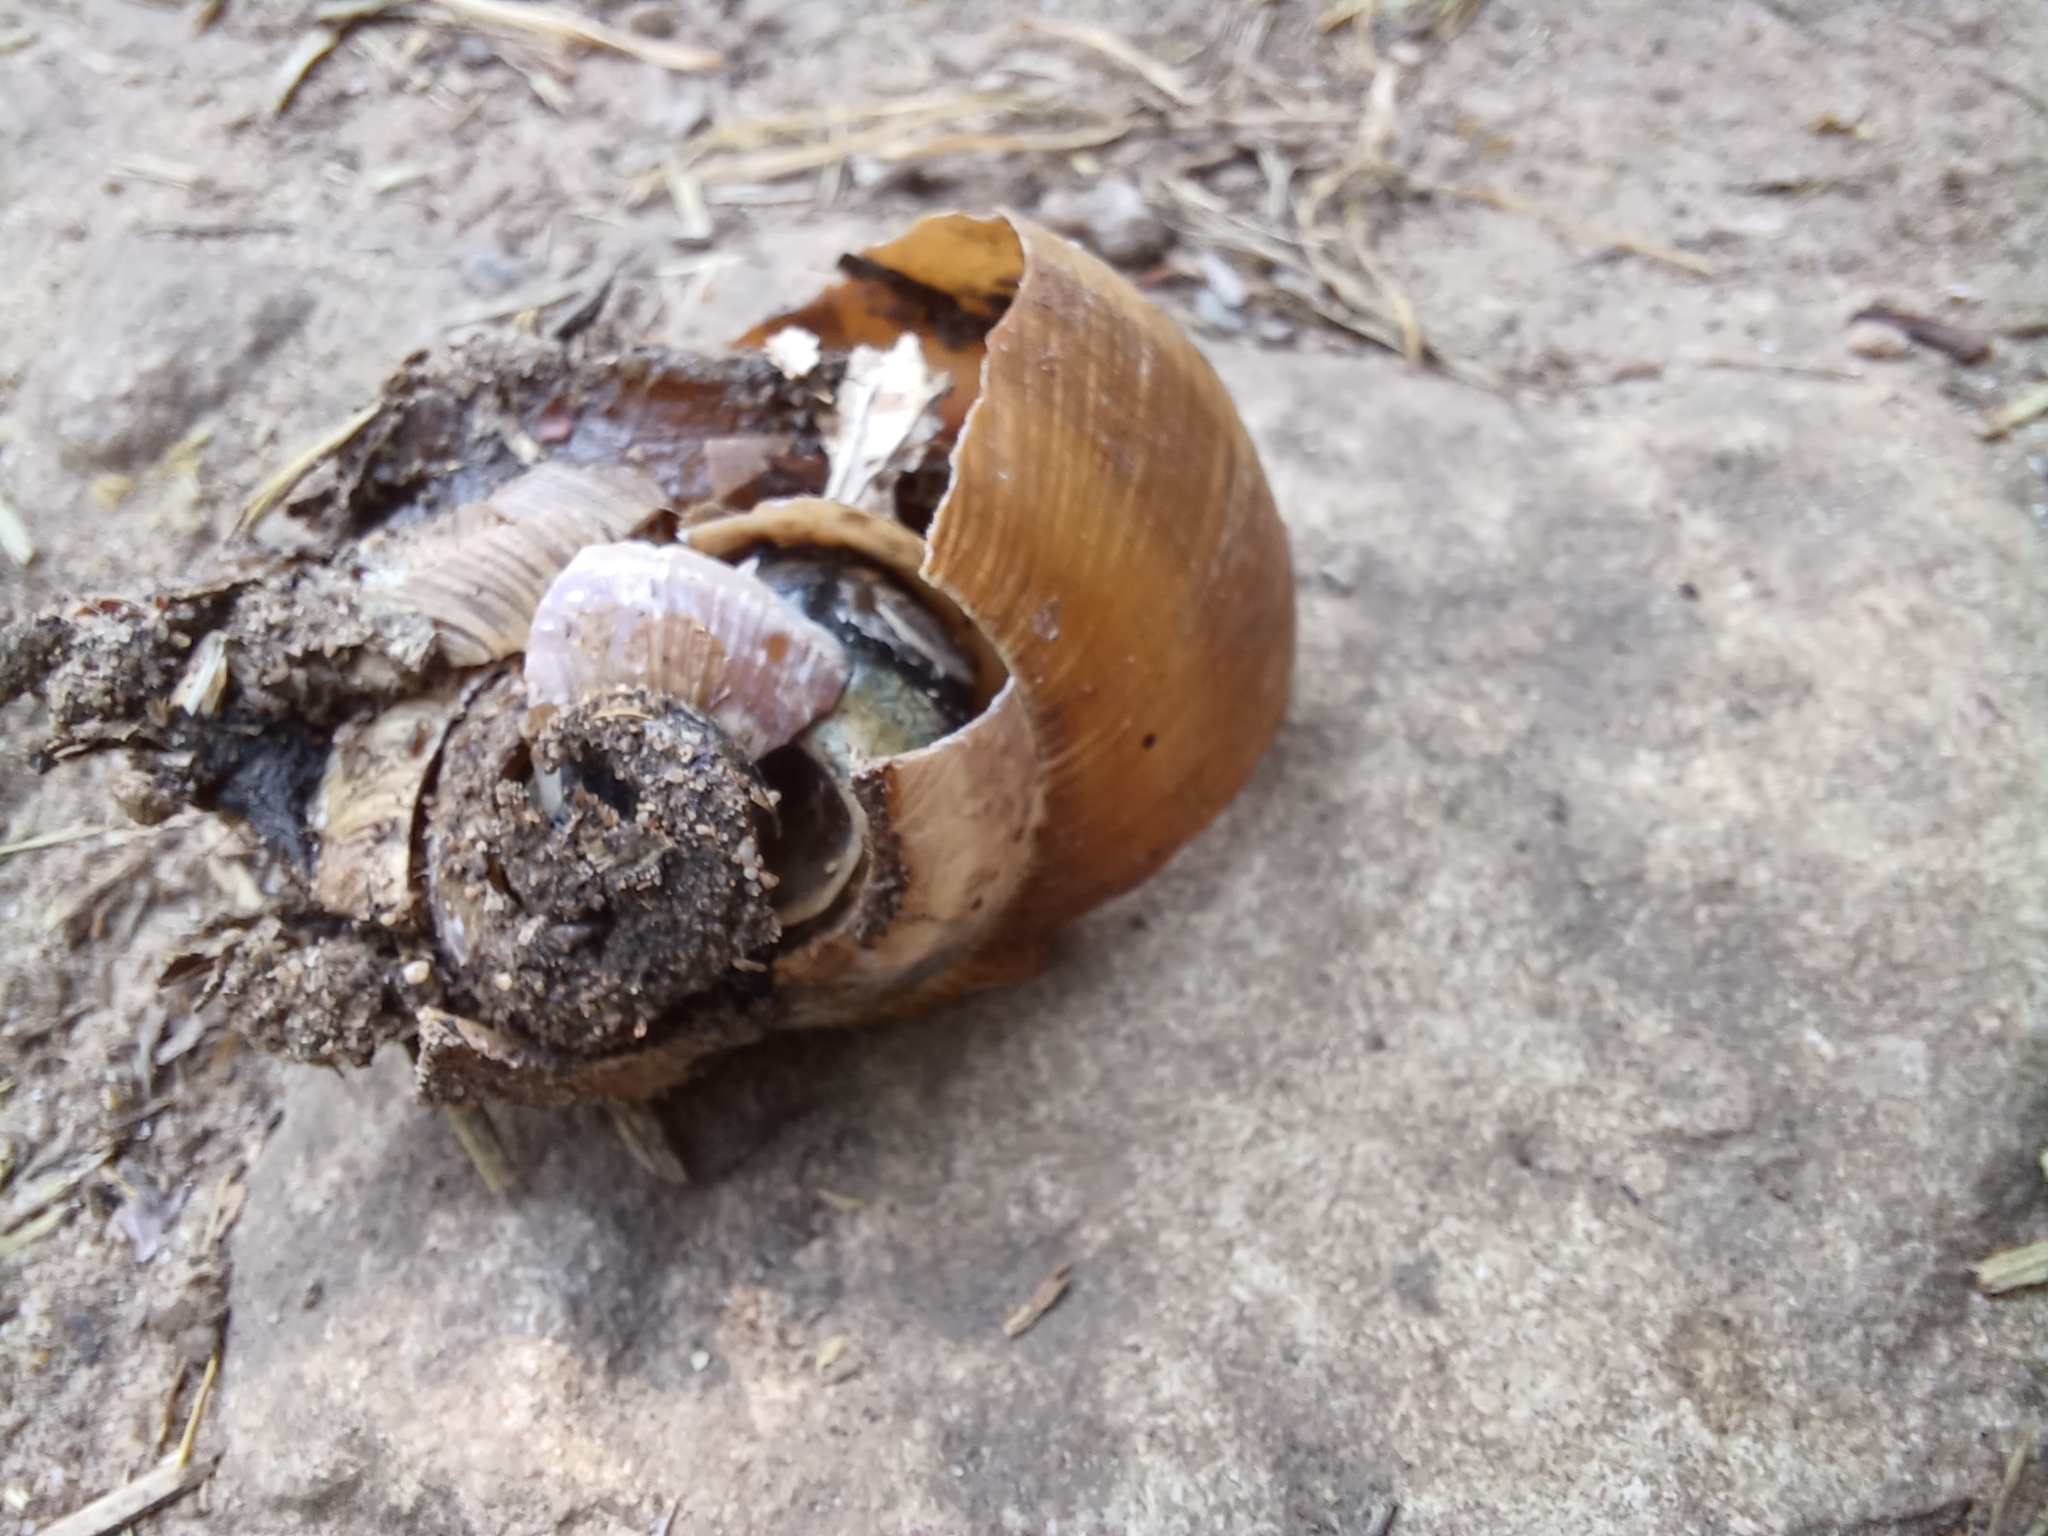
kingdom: Animalia
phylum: Mollusca
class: Gastropoda
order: Stylommatophora
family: Helicidae
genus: Helix
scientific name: Helix pomatia
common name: Roman snail
